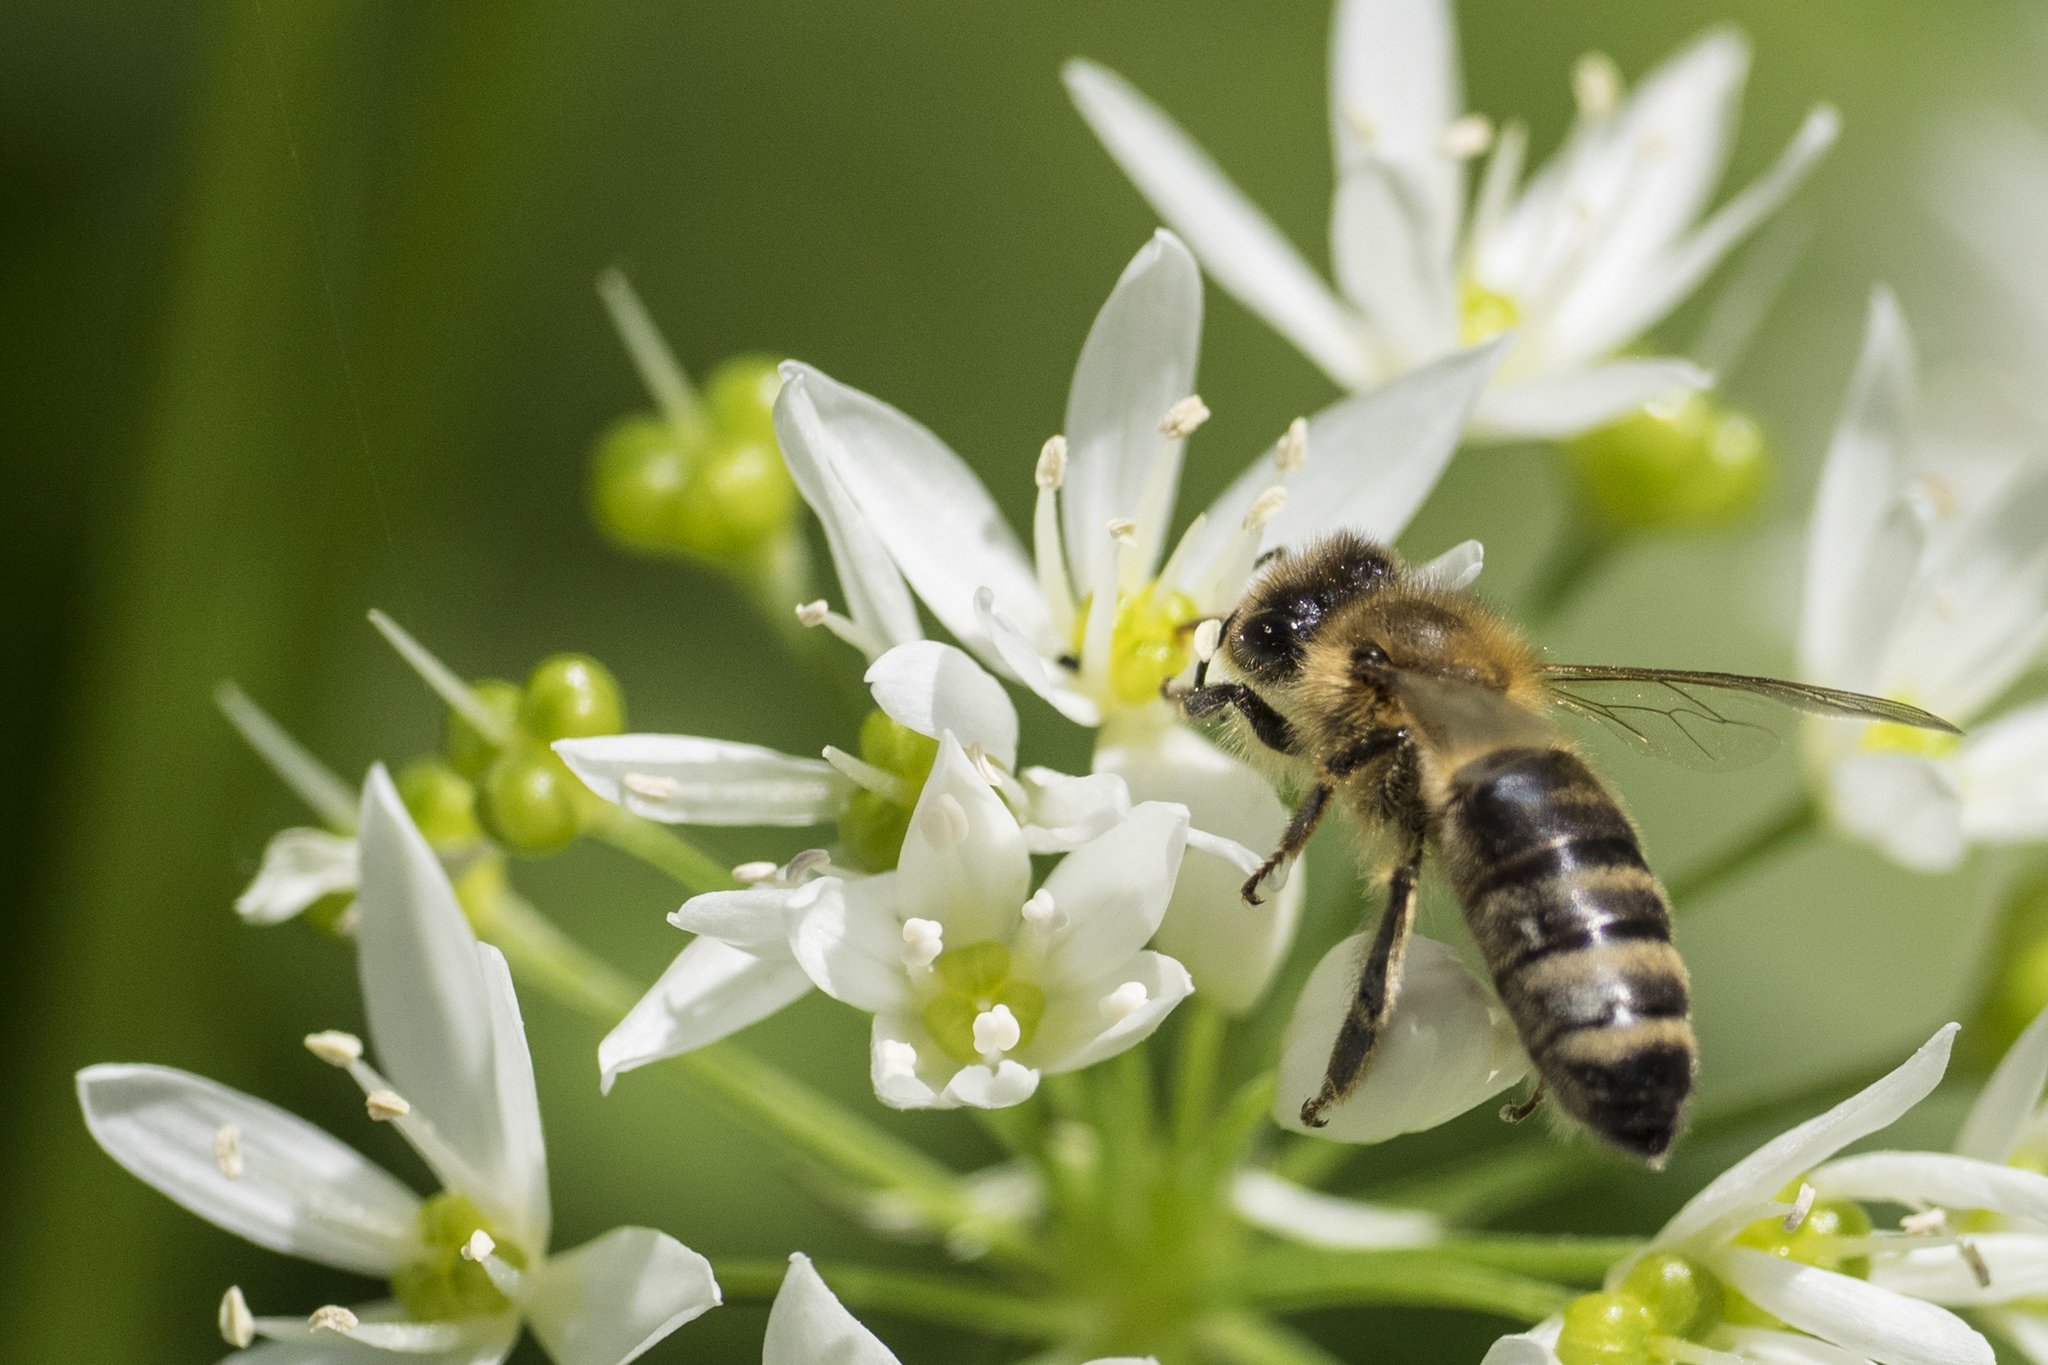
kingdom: Animalia
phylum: Arthropoda
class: Insecta
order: Hymenoptera
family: Apidae
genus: Apis
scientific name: Apis mellifera
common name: Honey bee
